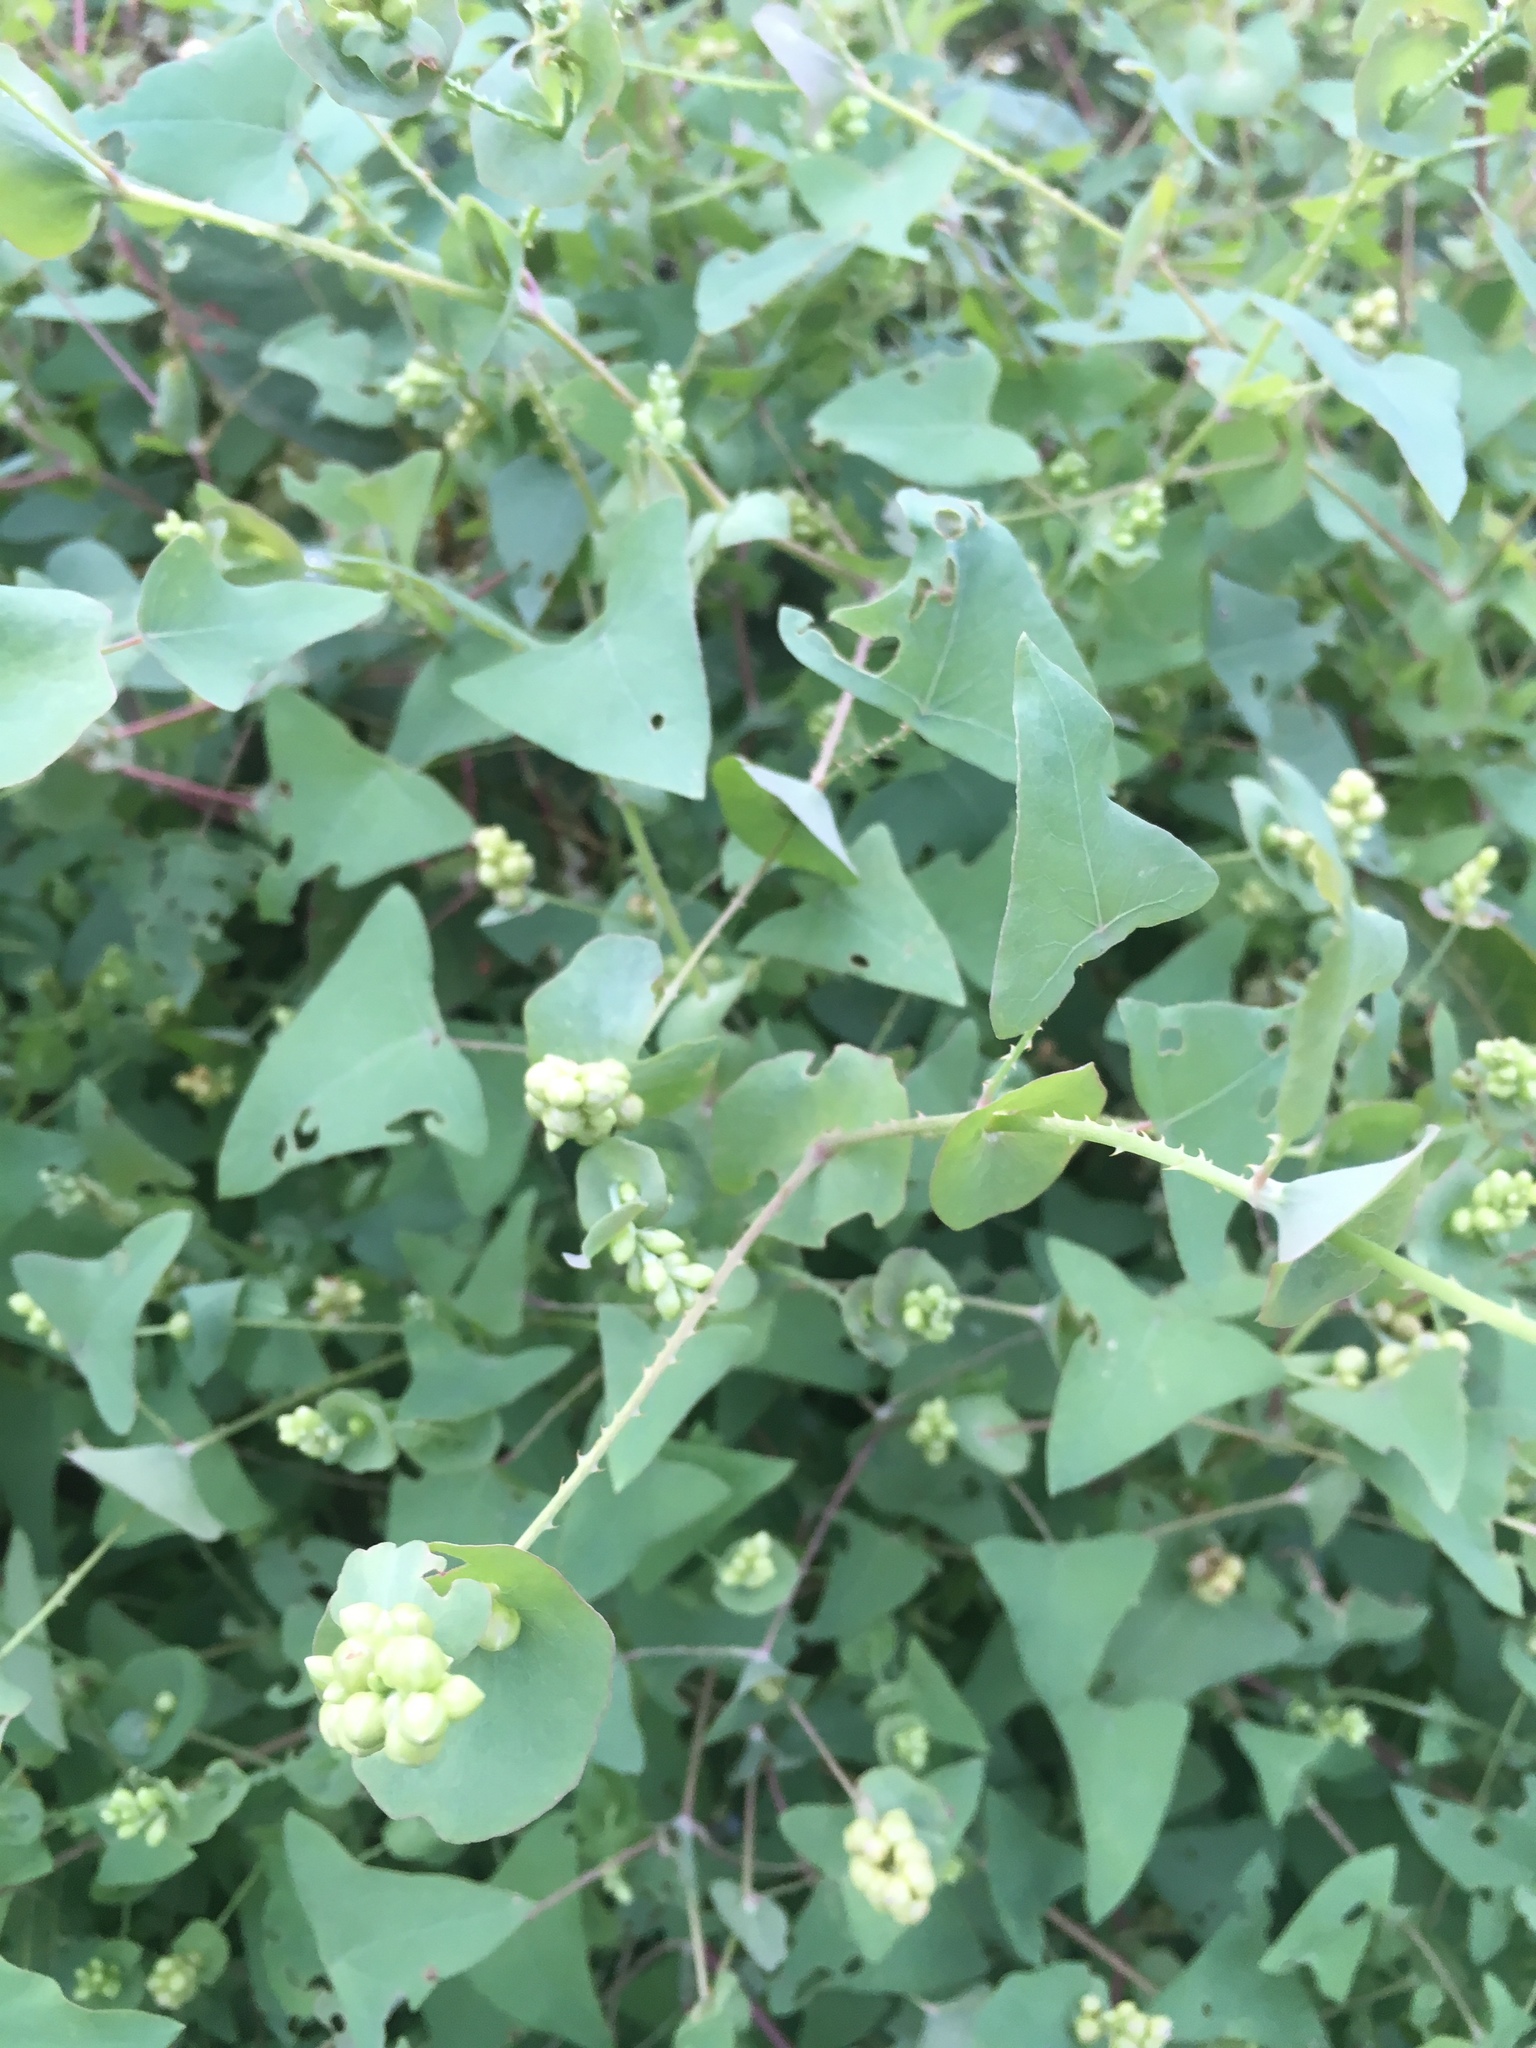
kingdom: Plantae
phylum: Tracheophyta
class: Magnoliopsida
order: Caryophyllales
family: Polygonaceae
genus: Persicaria
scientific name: Persicaria perfoliata
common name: Asiatic tearthumb
